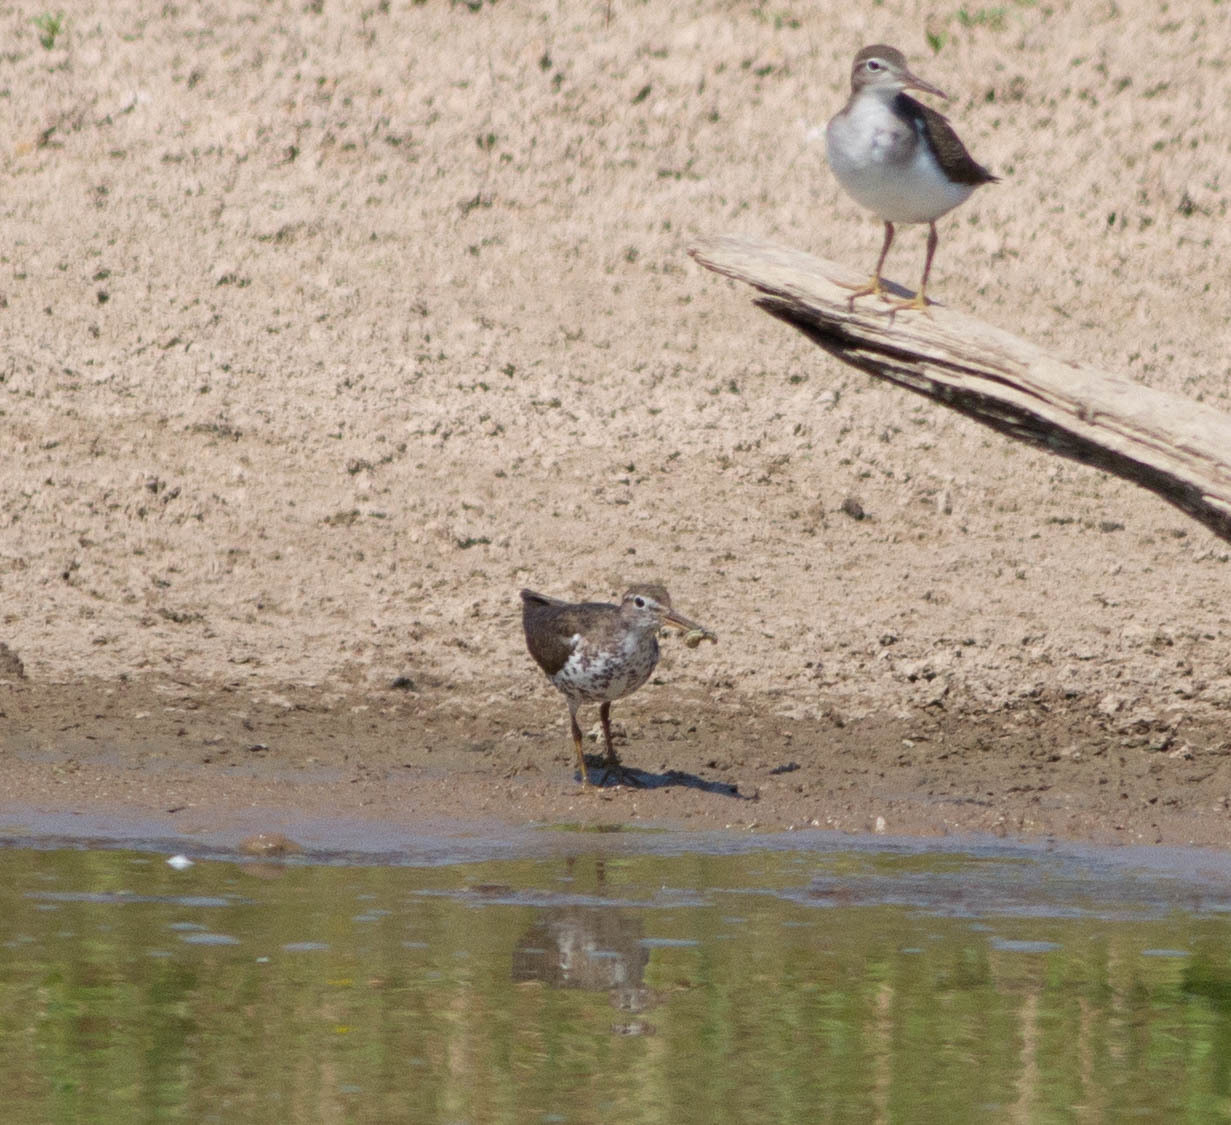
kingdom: Animalia
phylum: Chordata
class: Aves
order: Charadriiformes
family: Scolopacidae
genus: Actitis
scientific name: Actitis macularius
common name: Spotted sandpiper
